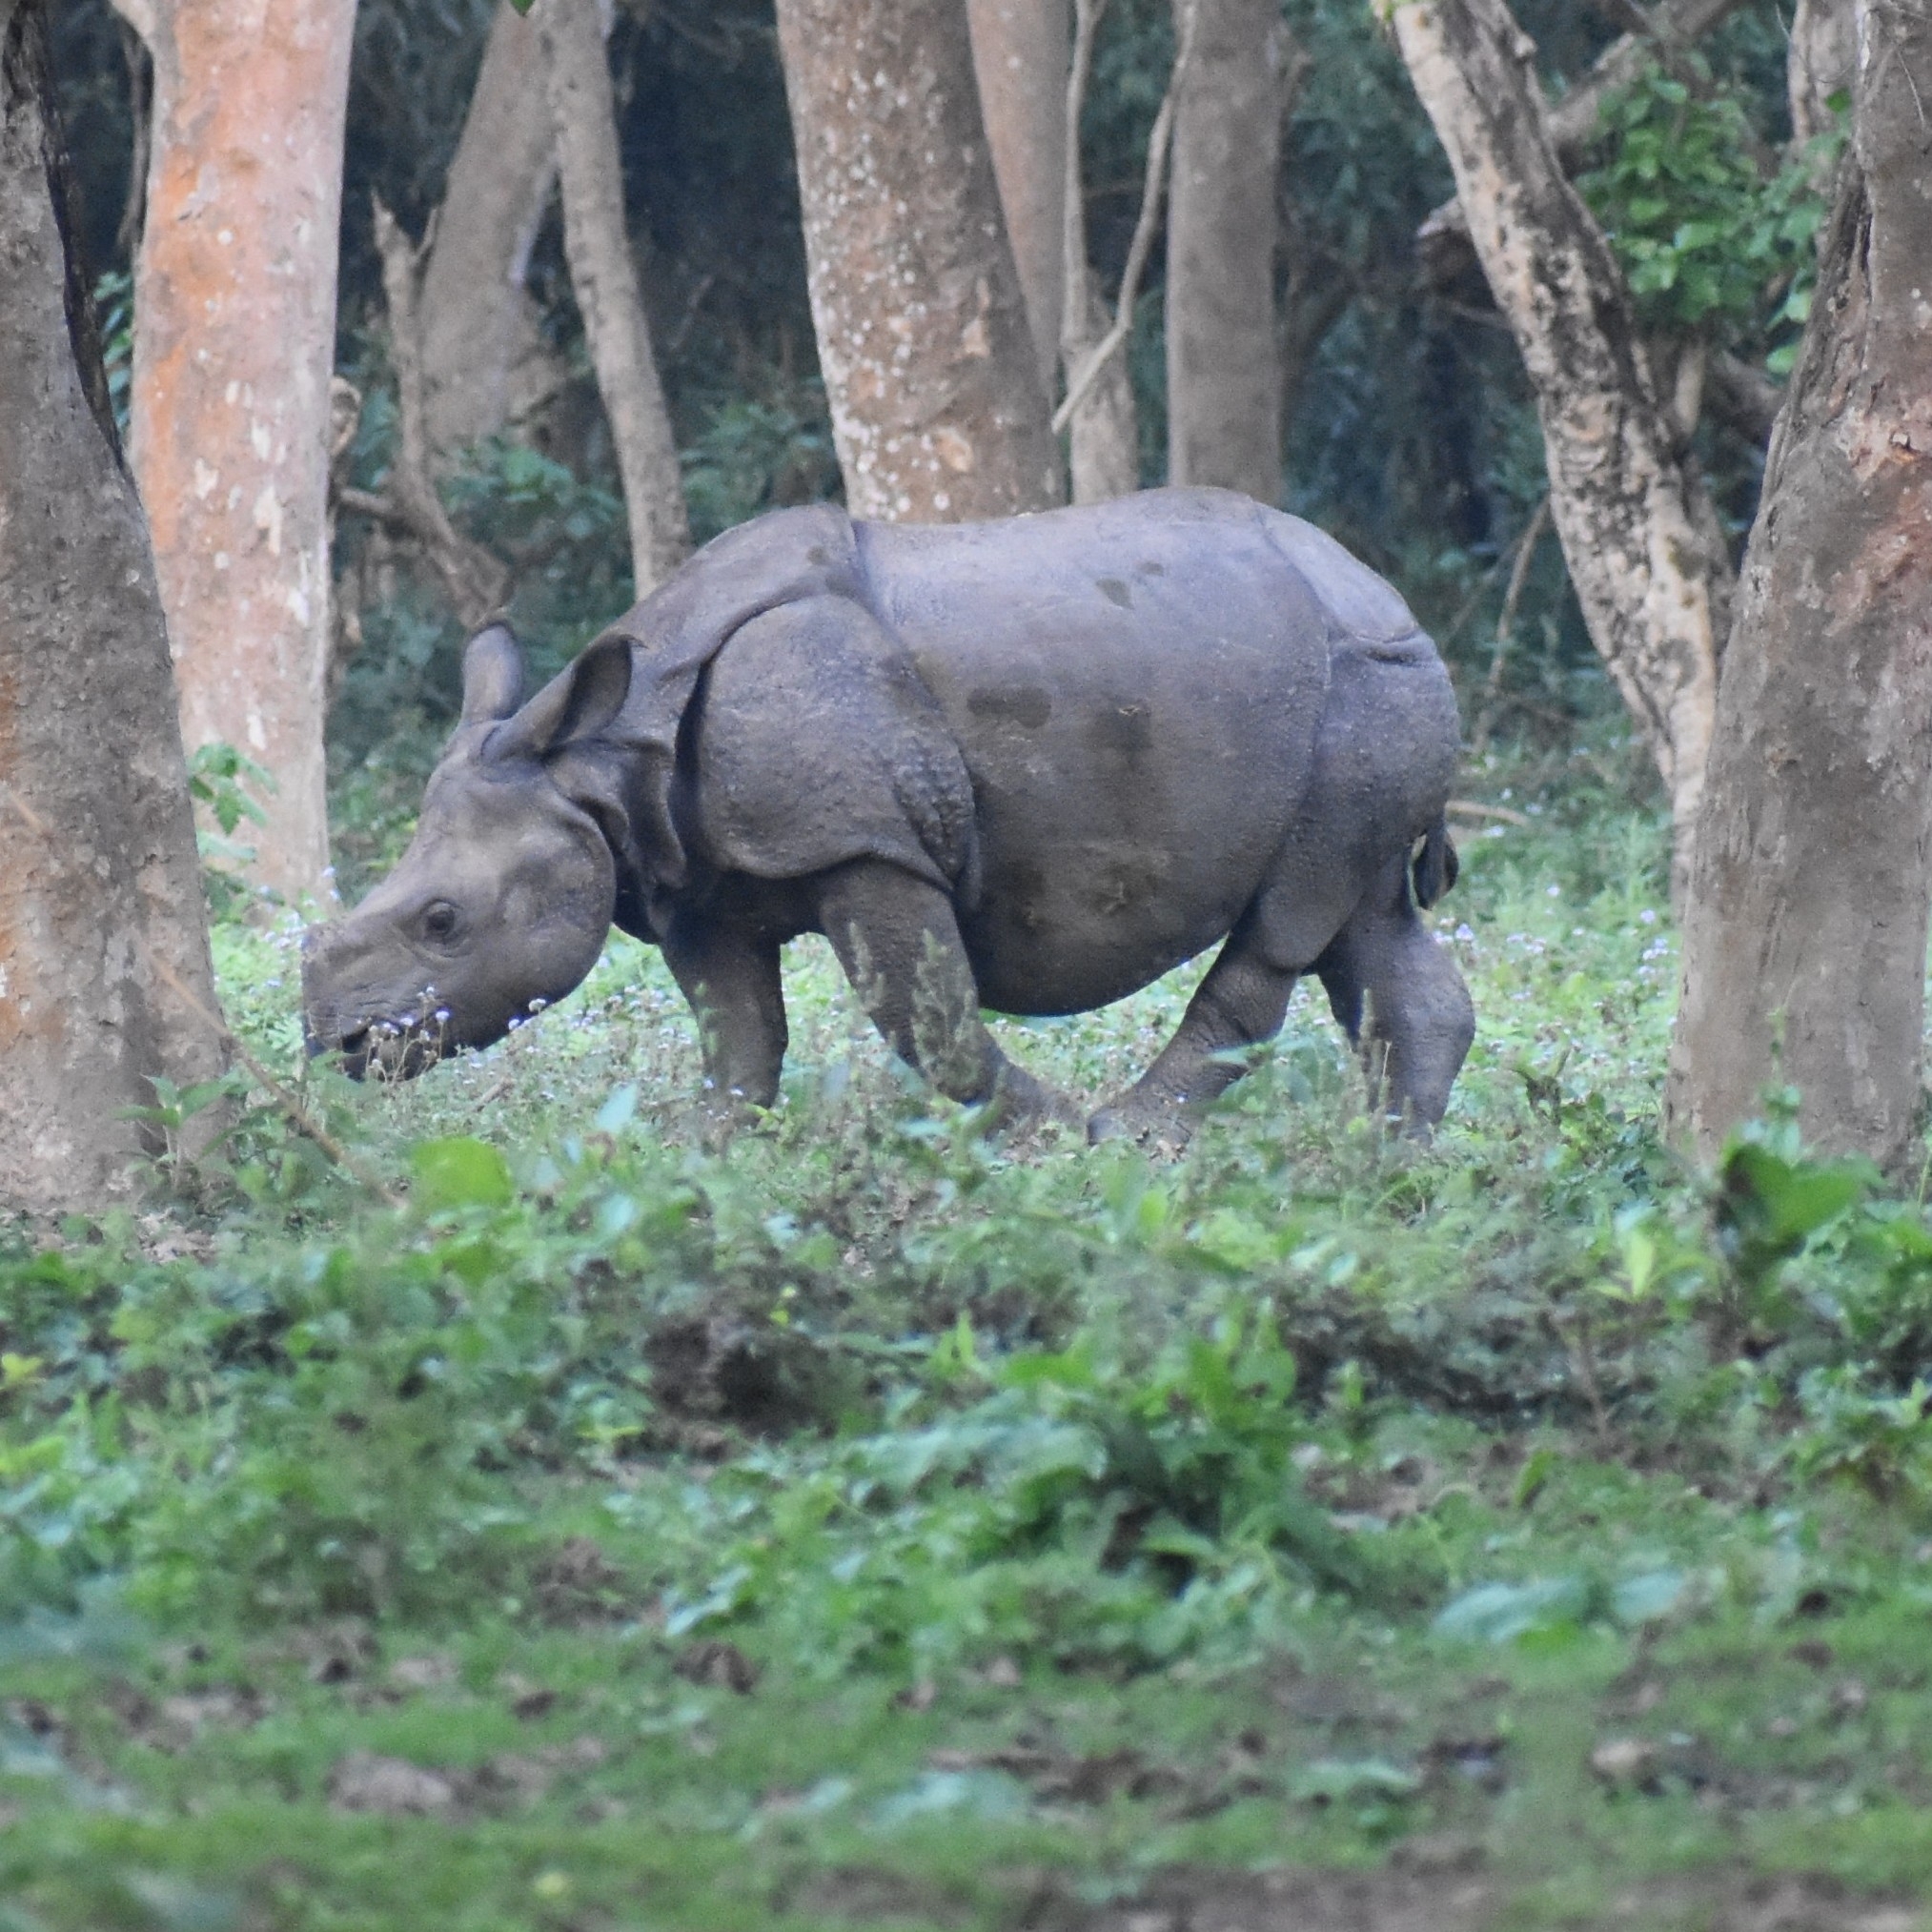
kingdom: Animalia
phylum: Chordata
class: Mammalia
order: Perissodactyla
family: Rhinocerotidae
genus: Rhinoceros
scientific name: Rhinoceros unicornis
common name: Indian rhinoceros
